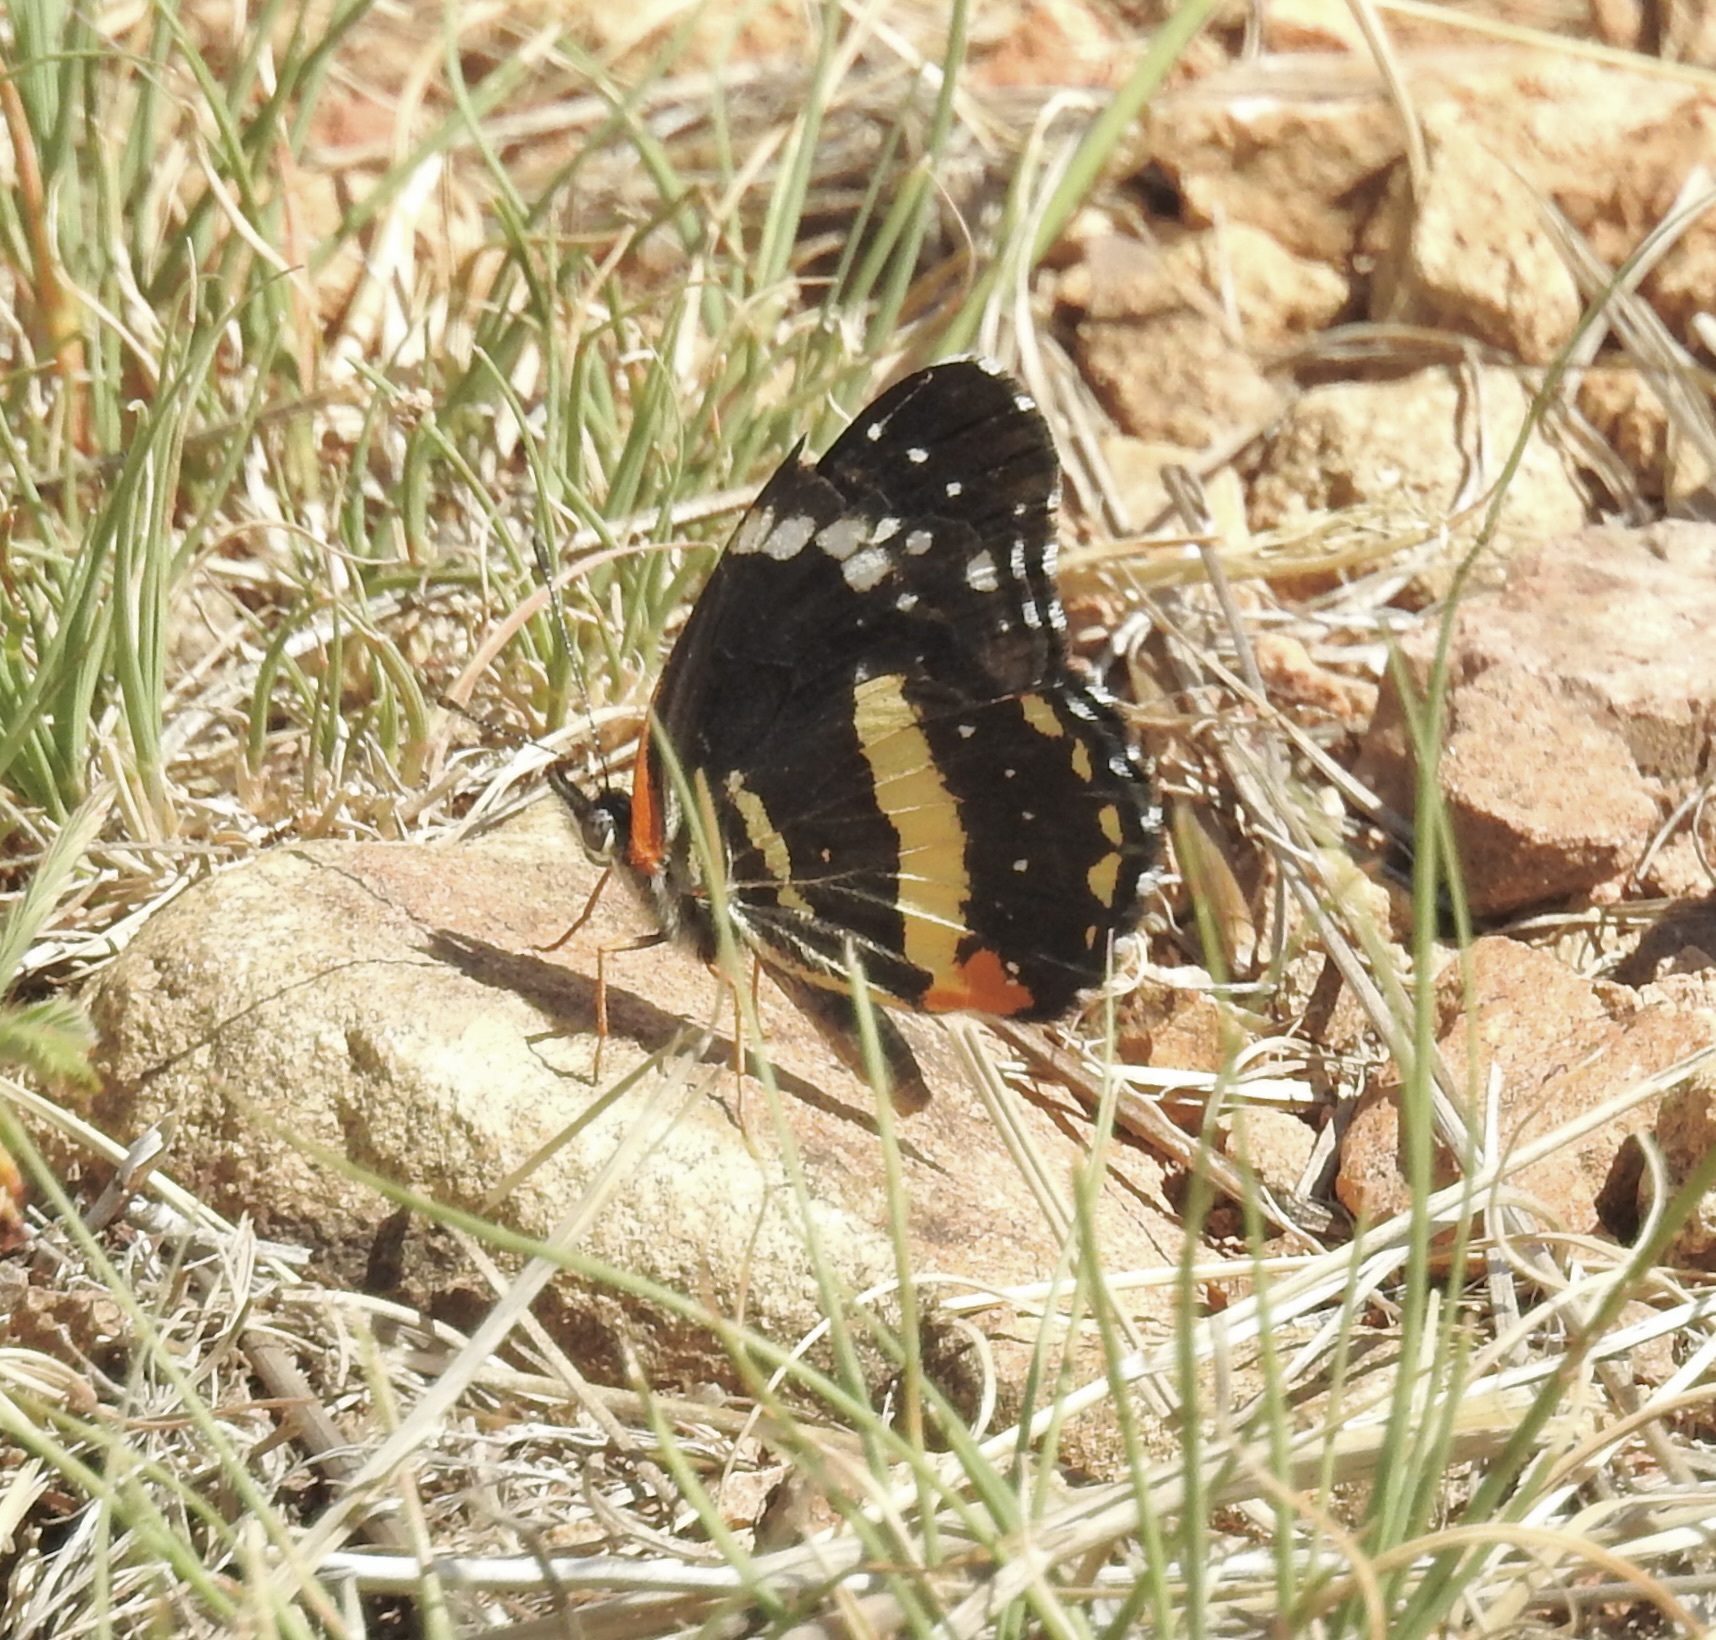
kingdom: Animalia
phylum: Arthropoda
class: Insecta
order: Lepidoptera
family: Nymphalidae
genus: Chlosyne
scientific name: Chlosyne lacinia
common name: Bordered patch
